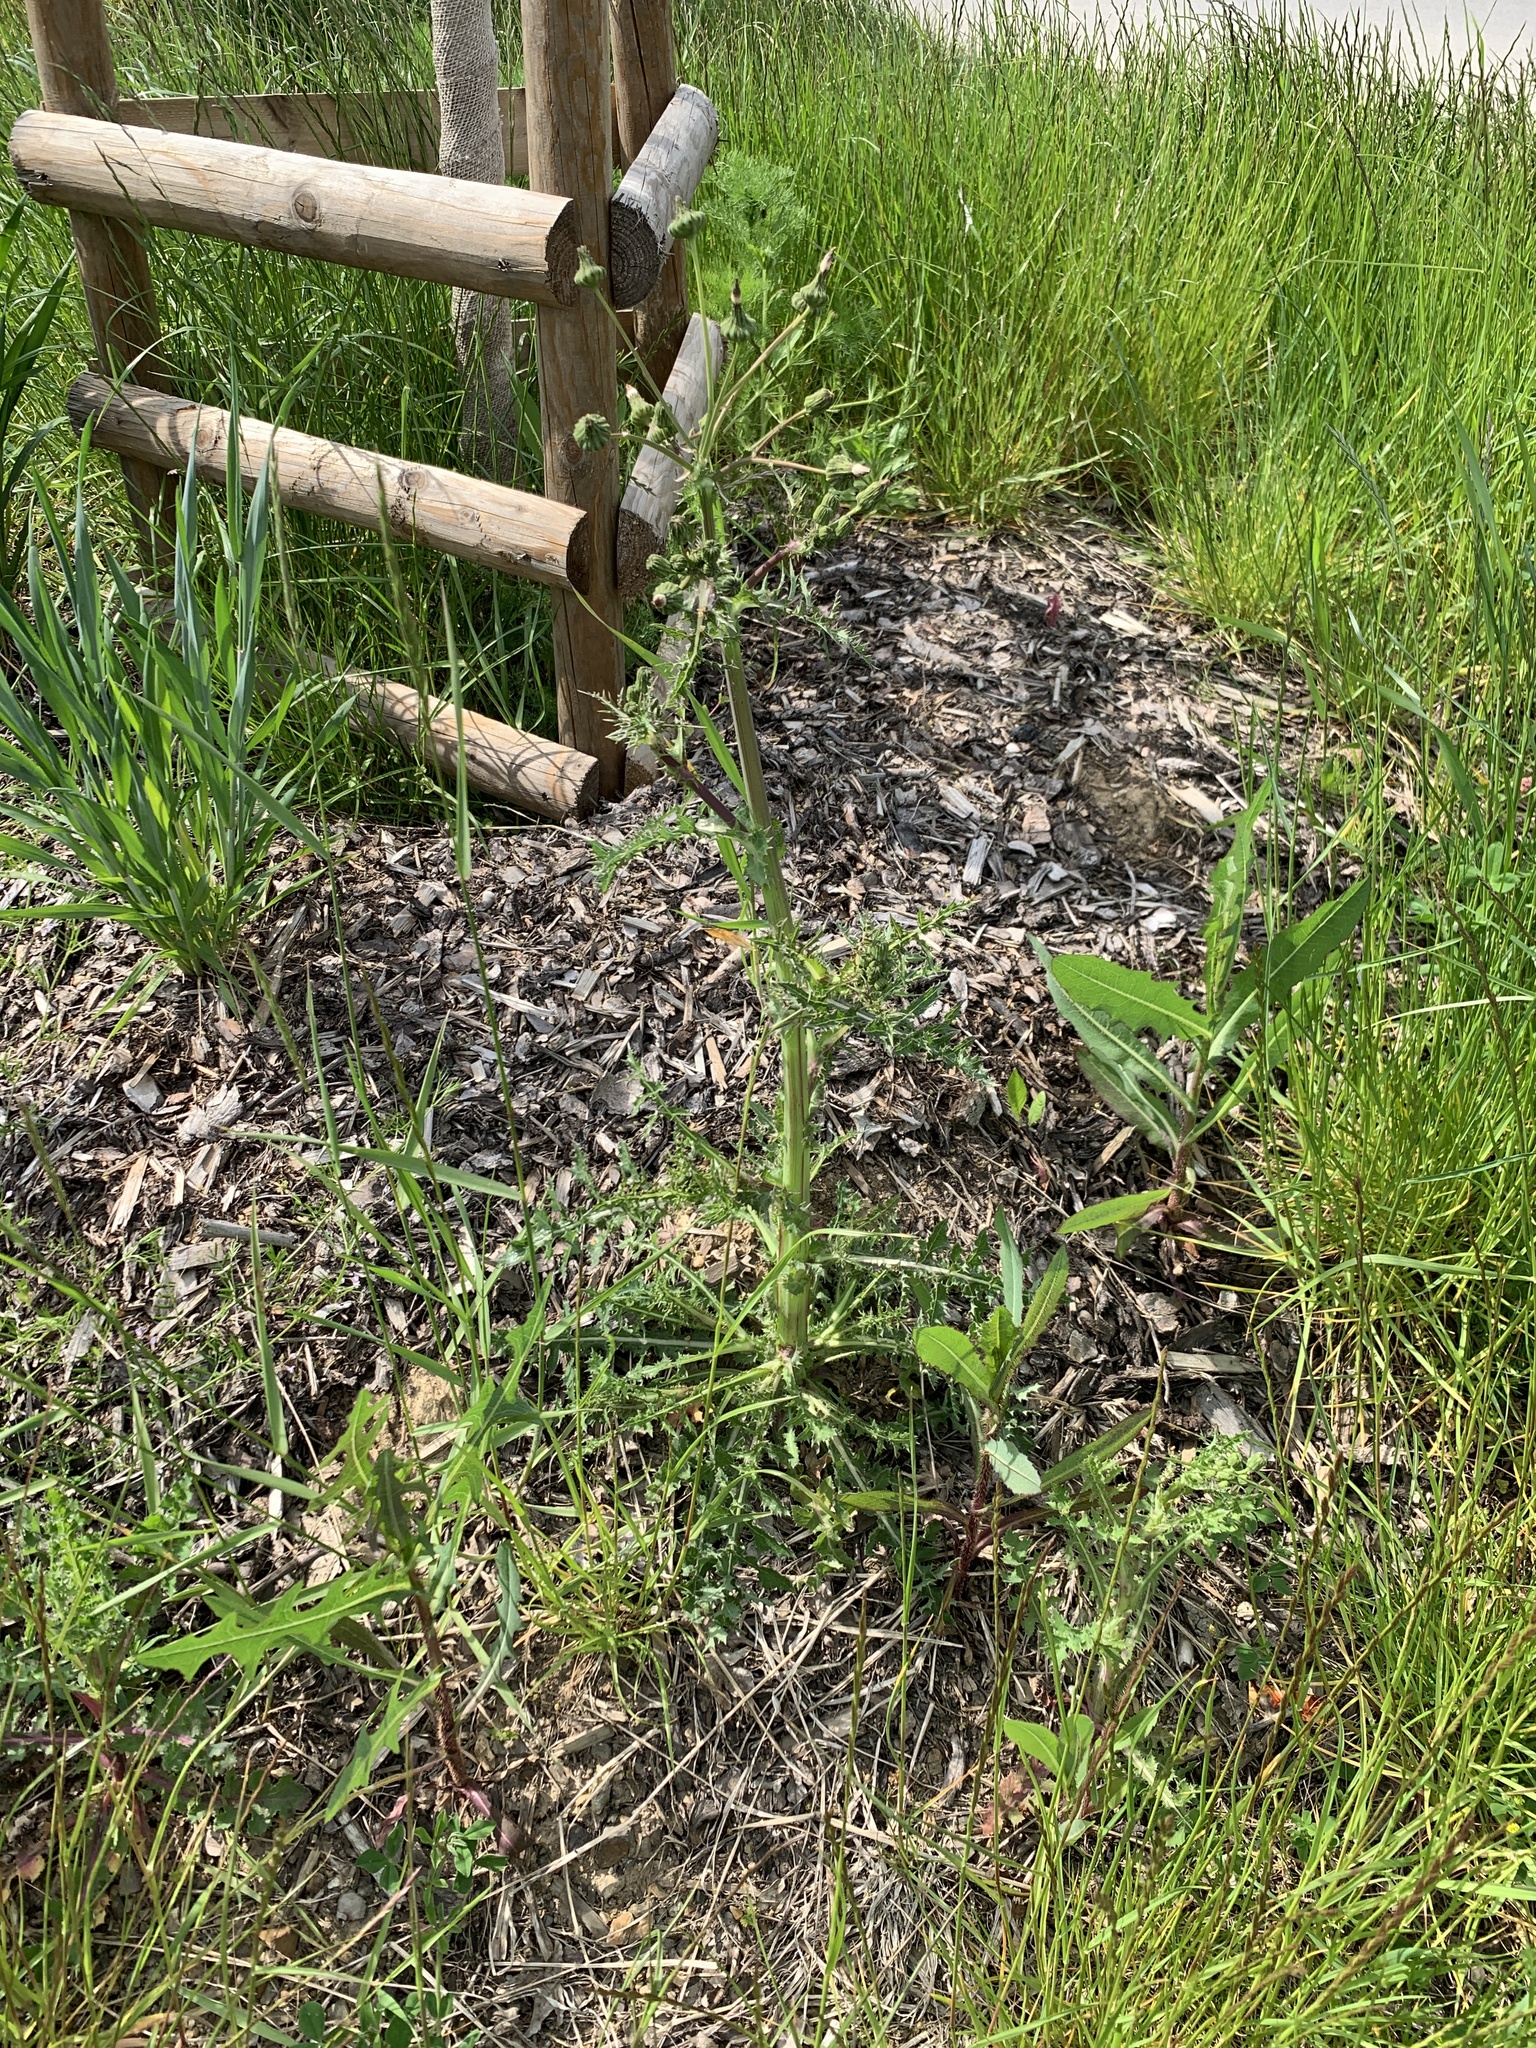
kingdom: Plantae
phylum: Tracheophyta
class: Magnoliopsida
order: Asterales
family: Asteraceae
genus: Sonchus
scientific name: Sonchus asper
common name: Prickly sow-thistle
